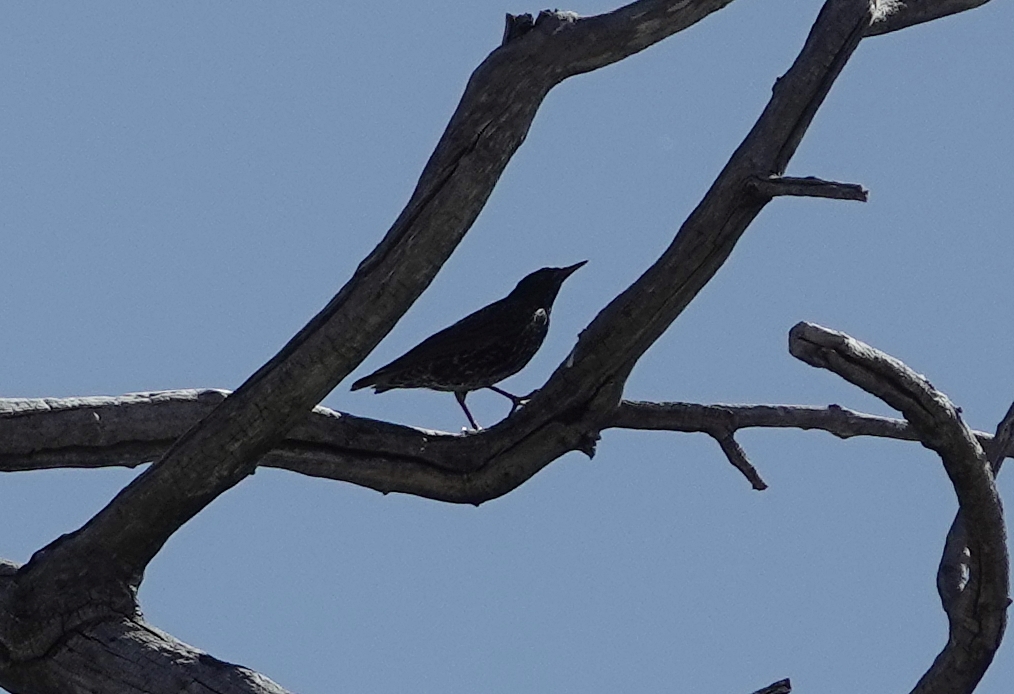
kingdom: Animalia
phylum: Chordata
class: Aves
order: Passeriformes
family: Sturnidae
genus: Sturnus
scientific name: Sturnus vulgaris
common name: Common starling
